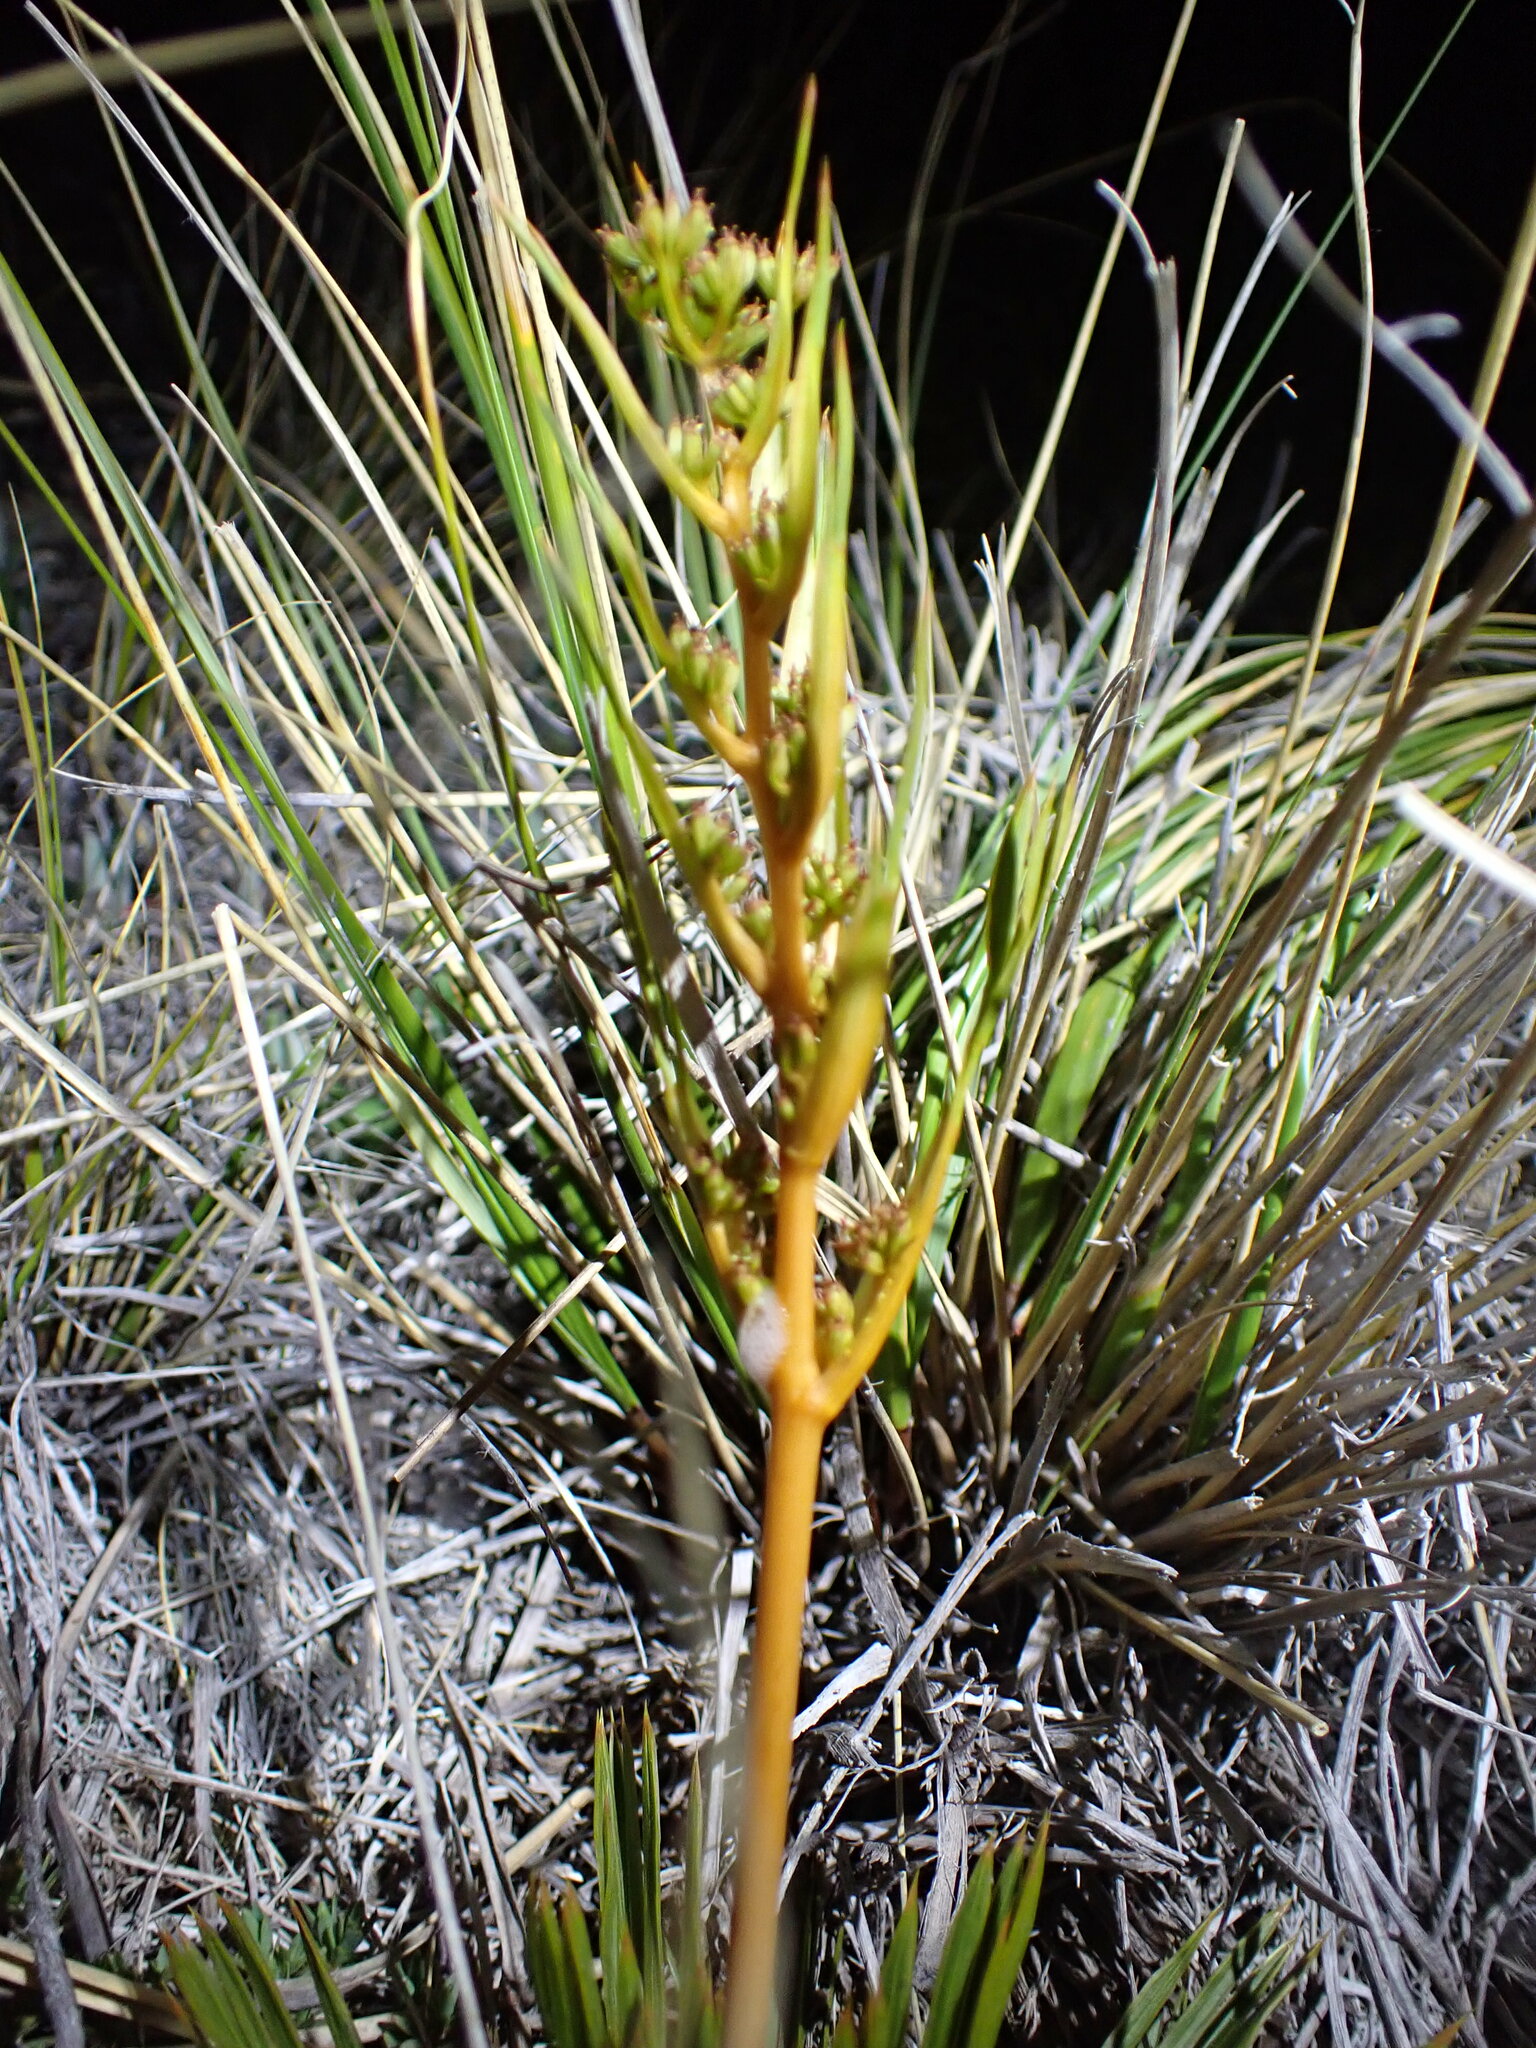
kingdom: Plantae
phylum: Tracheophyta
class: Magnoliopsida
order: Apiales
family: Apiaceae
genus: Aciphylla
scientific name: Aciphylla montana
